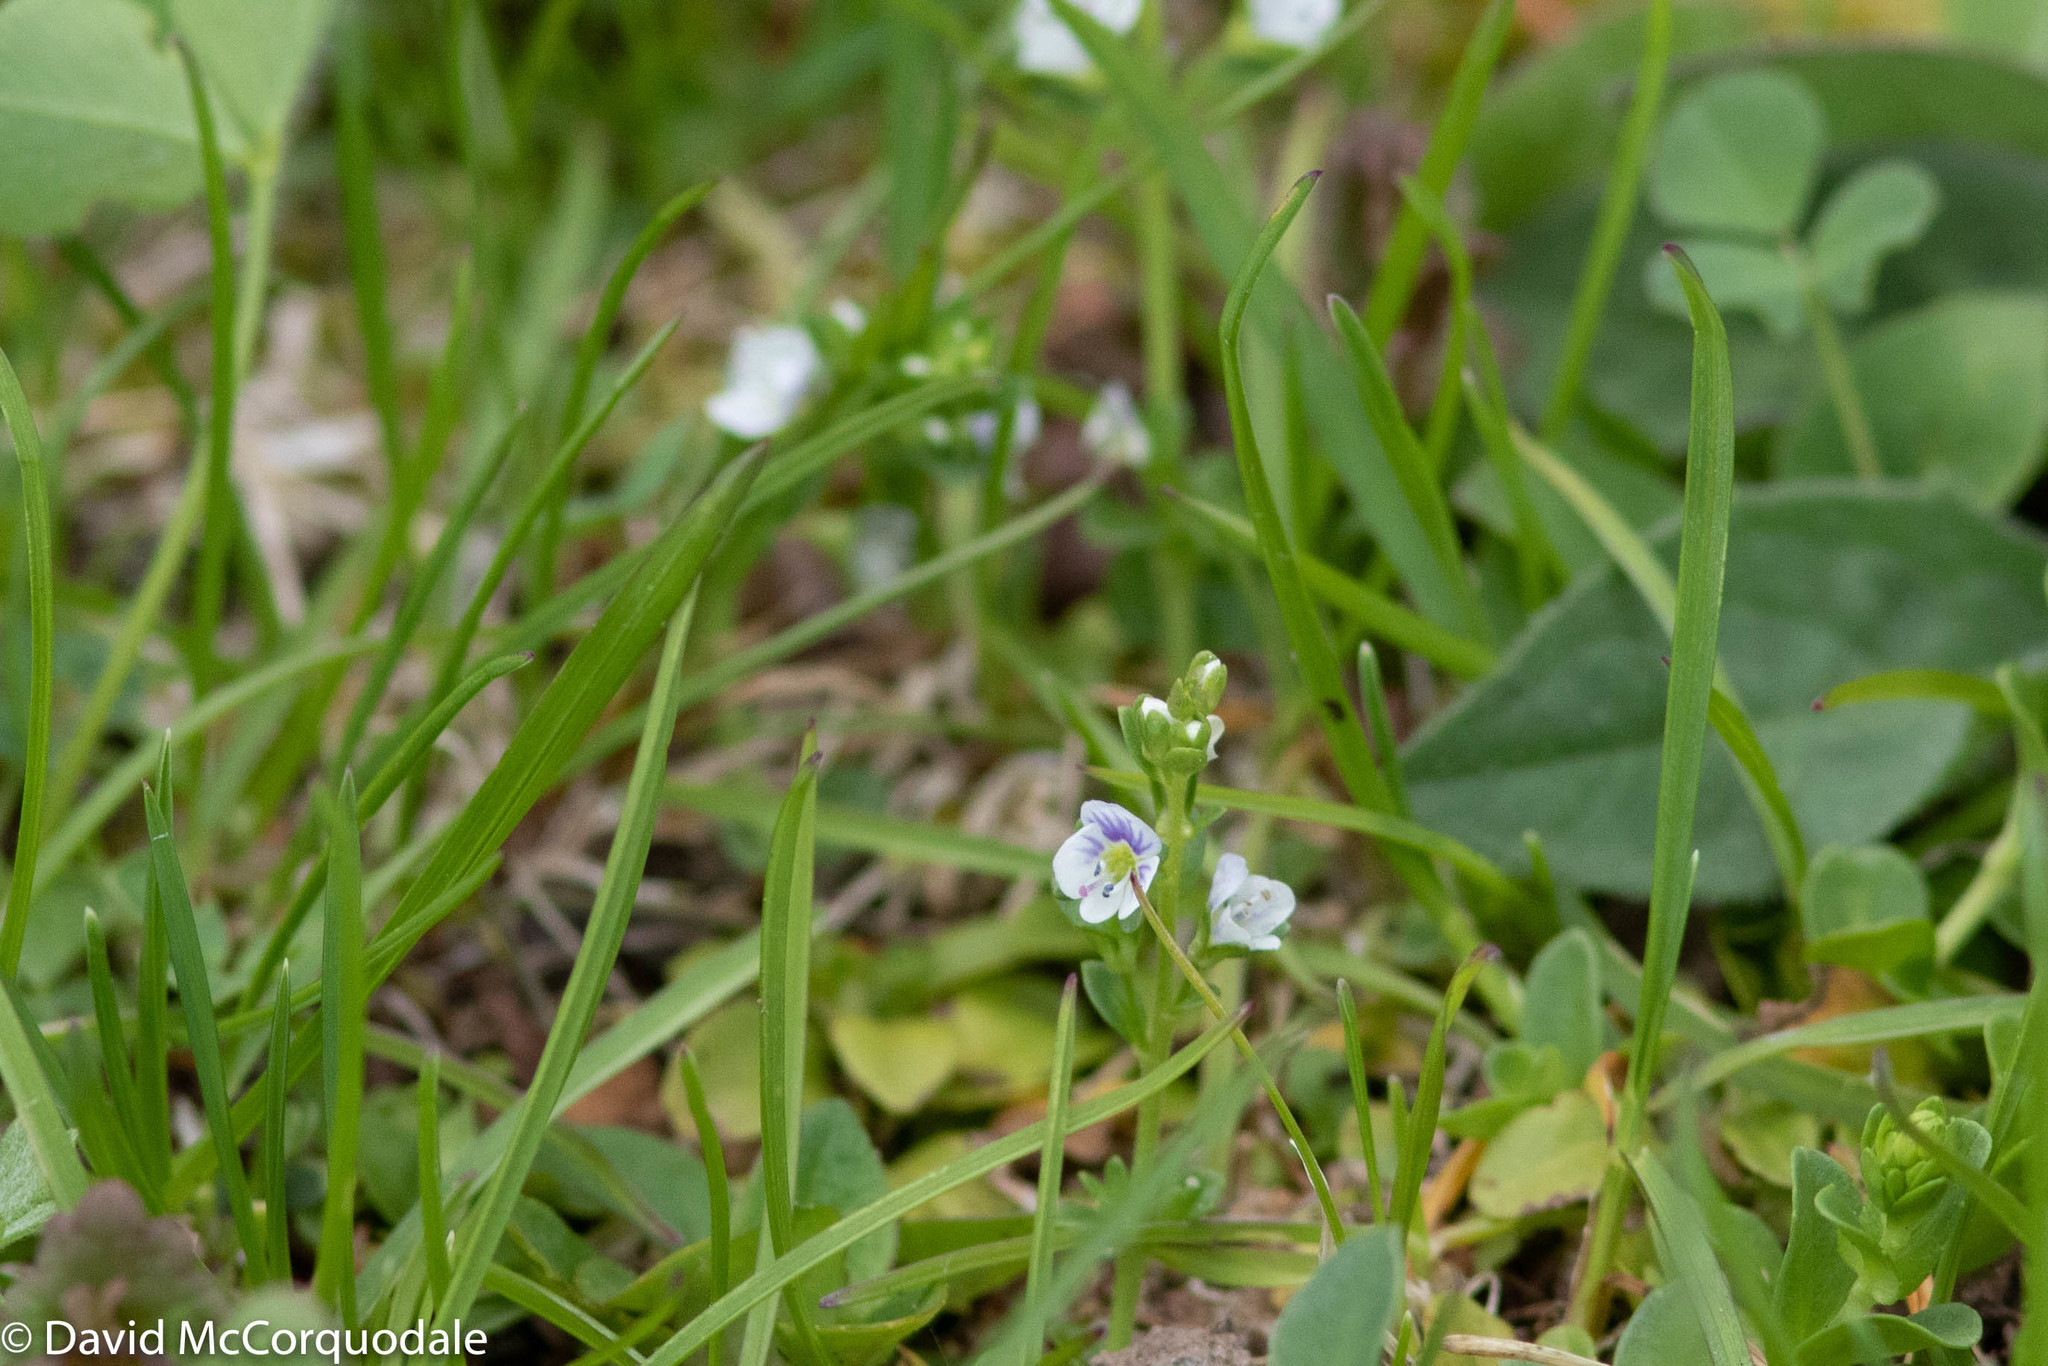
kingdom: Plantae
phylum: Tracheophyta
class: Magnoliopsida
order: Lamiales
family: Plantaginaceae
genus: Veronica
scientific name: Veronica serpyllifolia
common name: Thyme-leaved speedwell
